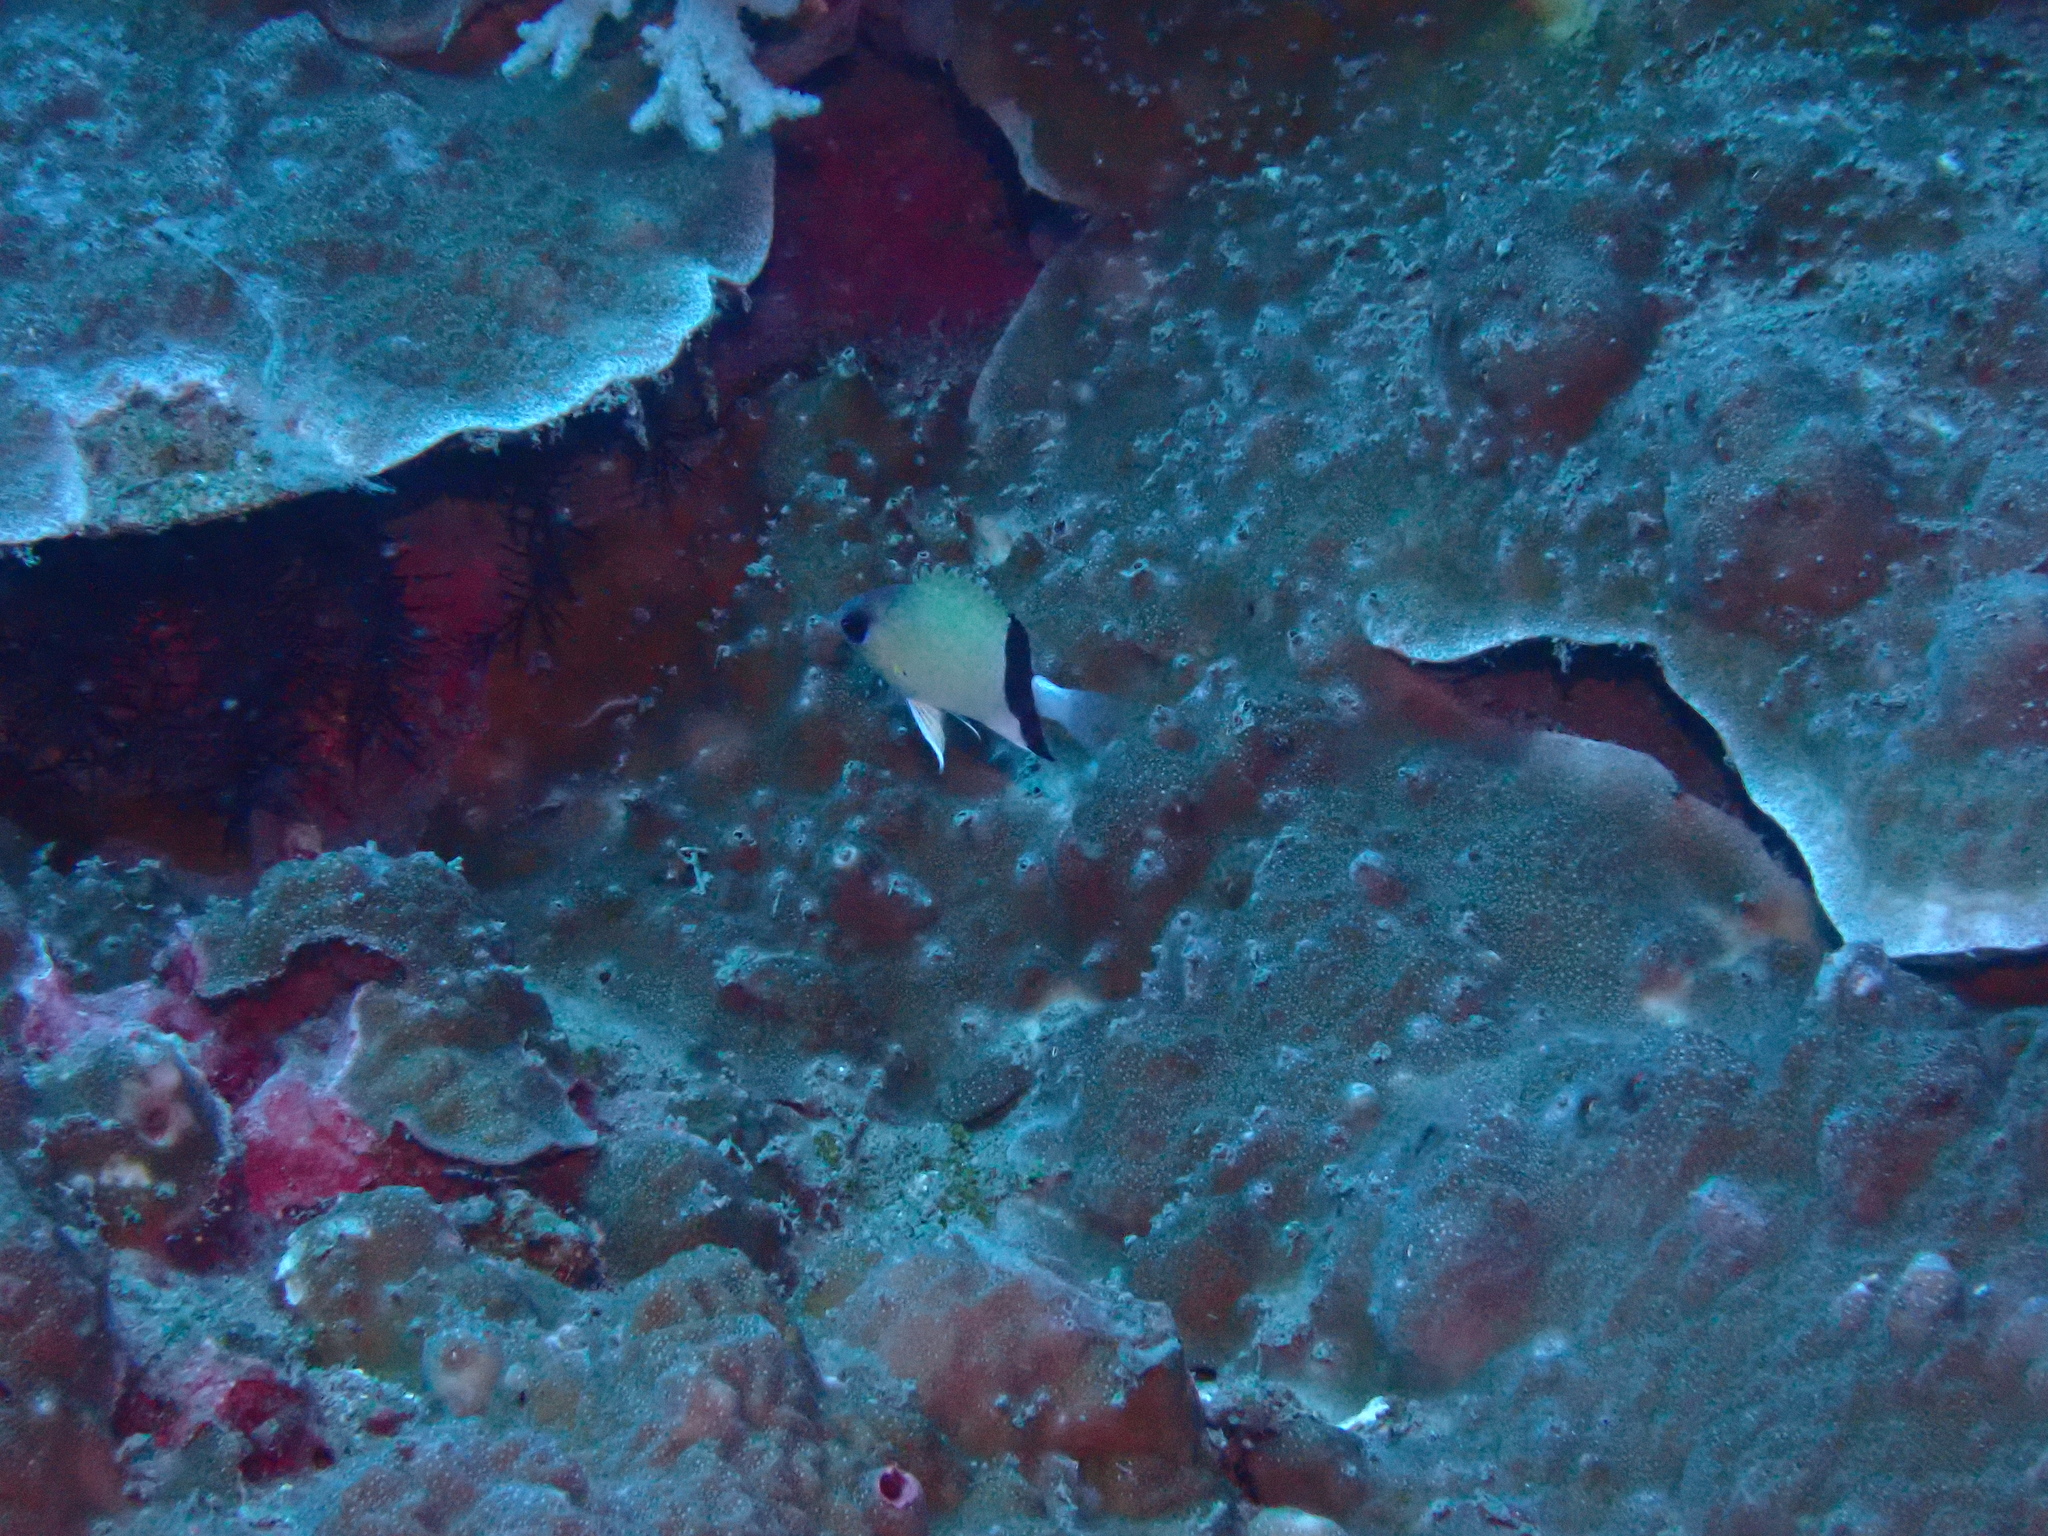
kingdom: Animalia
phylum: Chordata
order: Perciformes
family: Pomacentridae
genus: Chromis
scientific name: Chromis retrofasciata
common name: Black-bar chromis
